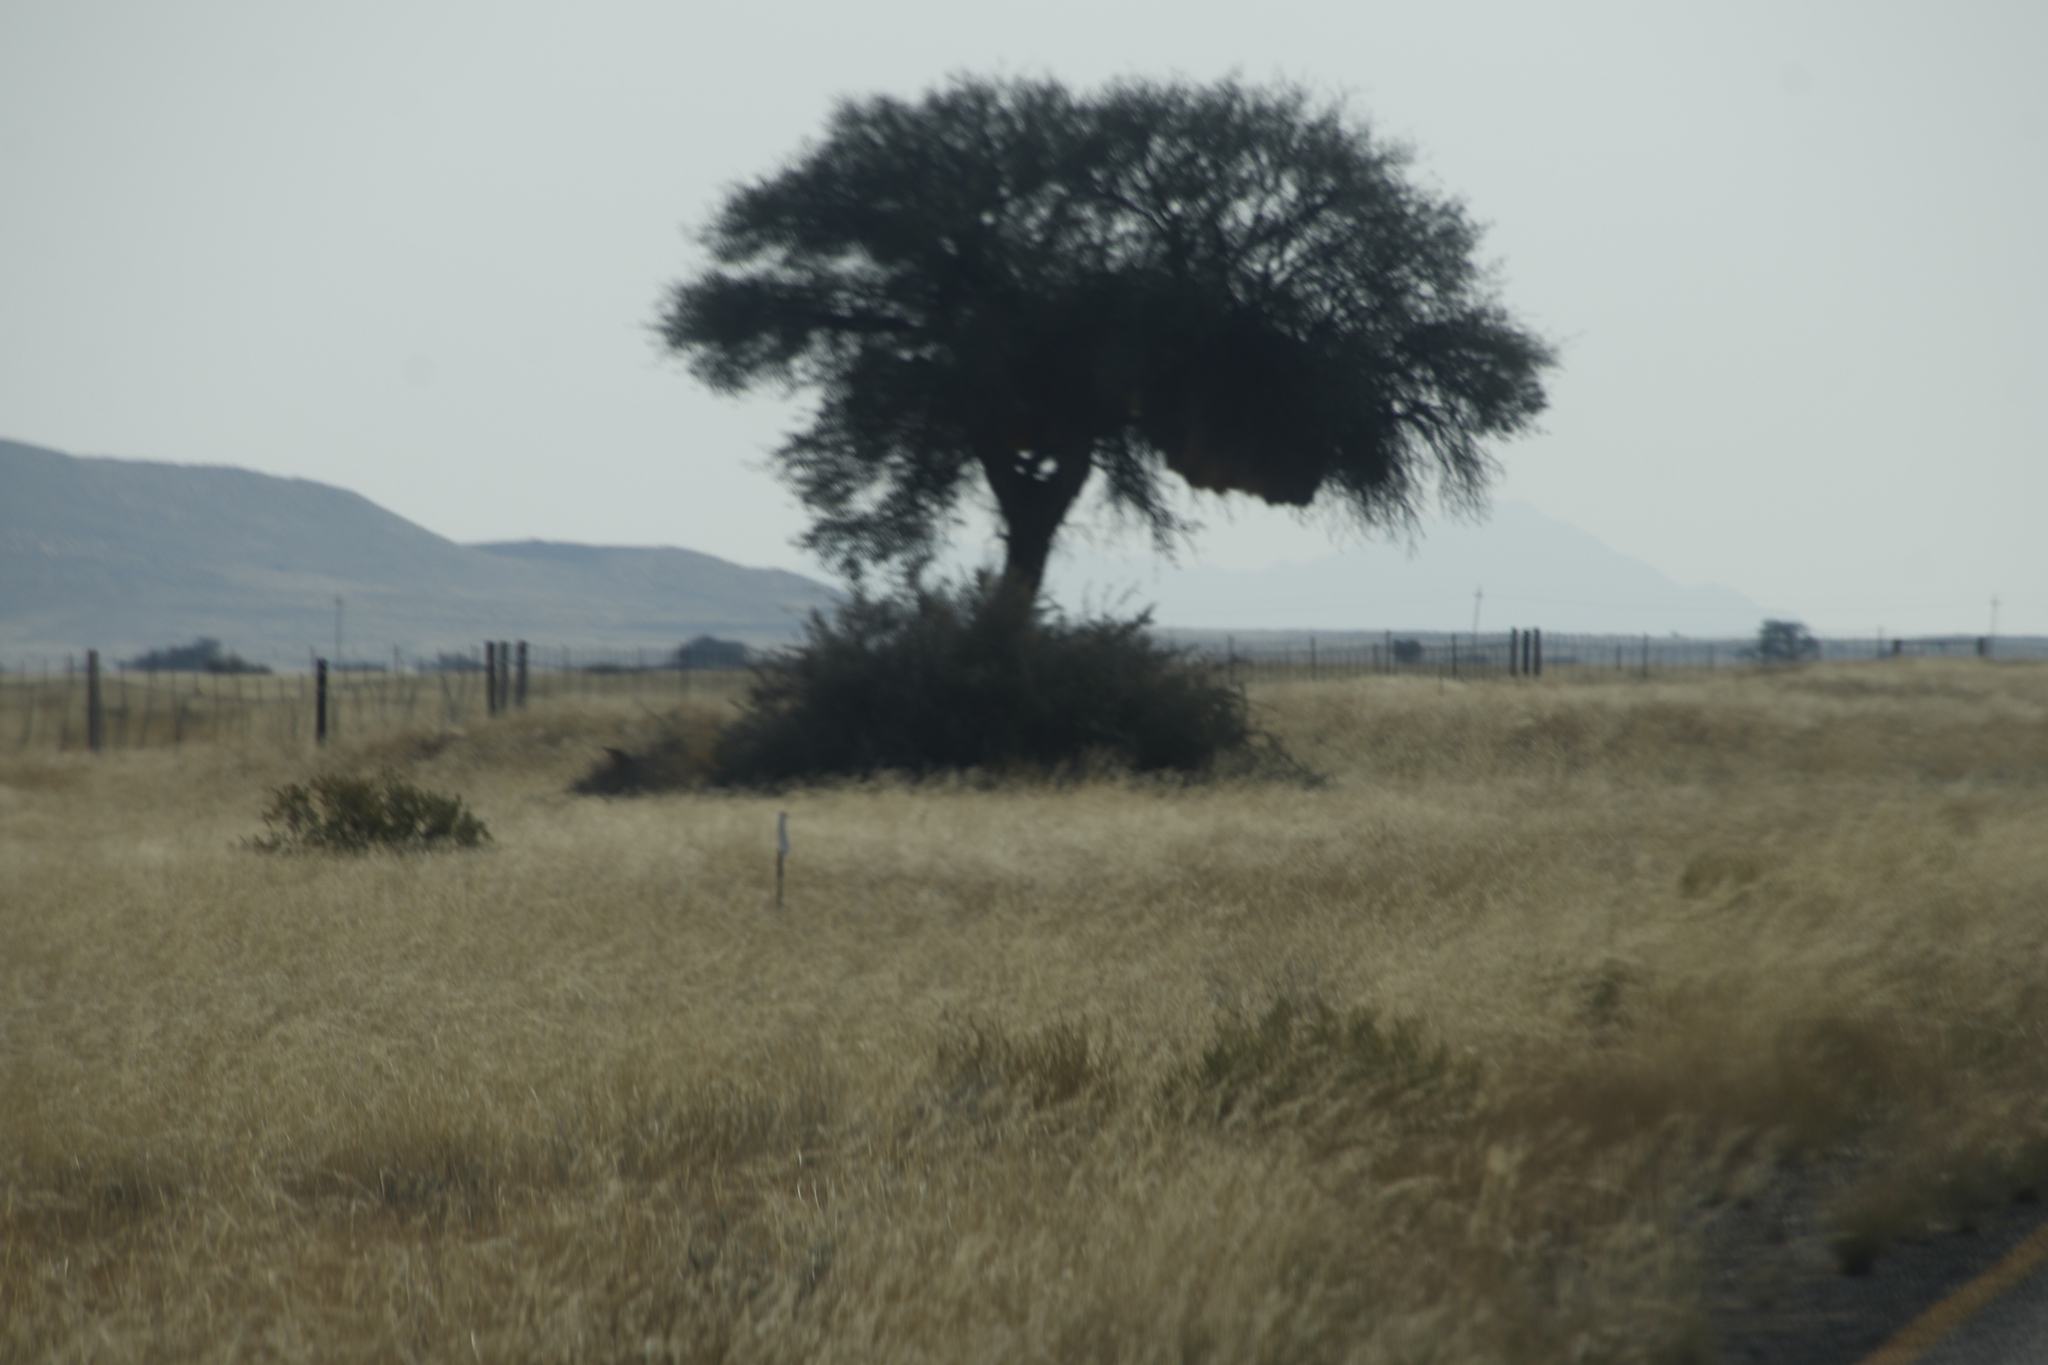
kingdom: Plantae
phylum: Tracheophyta
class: Magnoliopsida
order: Fabales
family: Fabaceae
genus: Vachellia
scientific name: Vachellia erioloba
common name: Camel thorn
